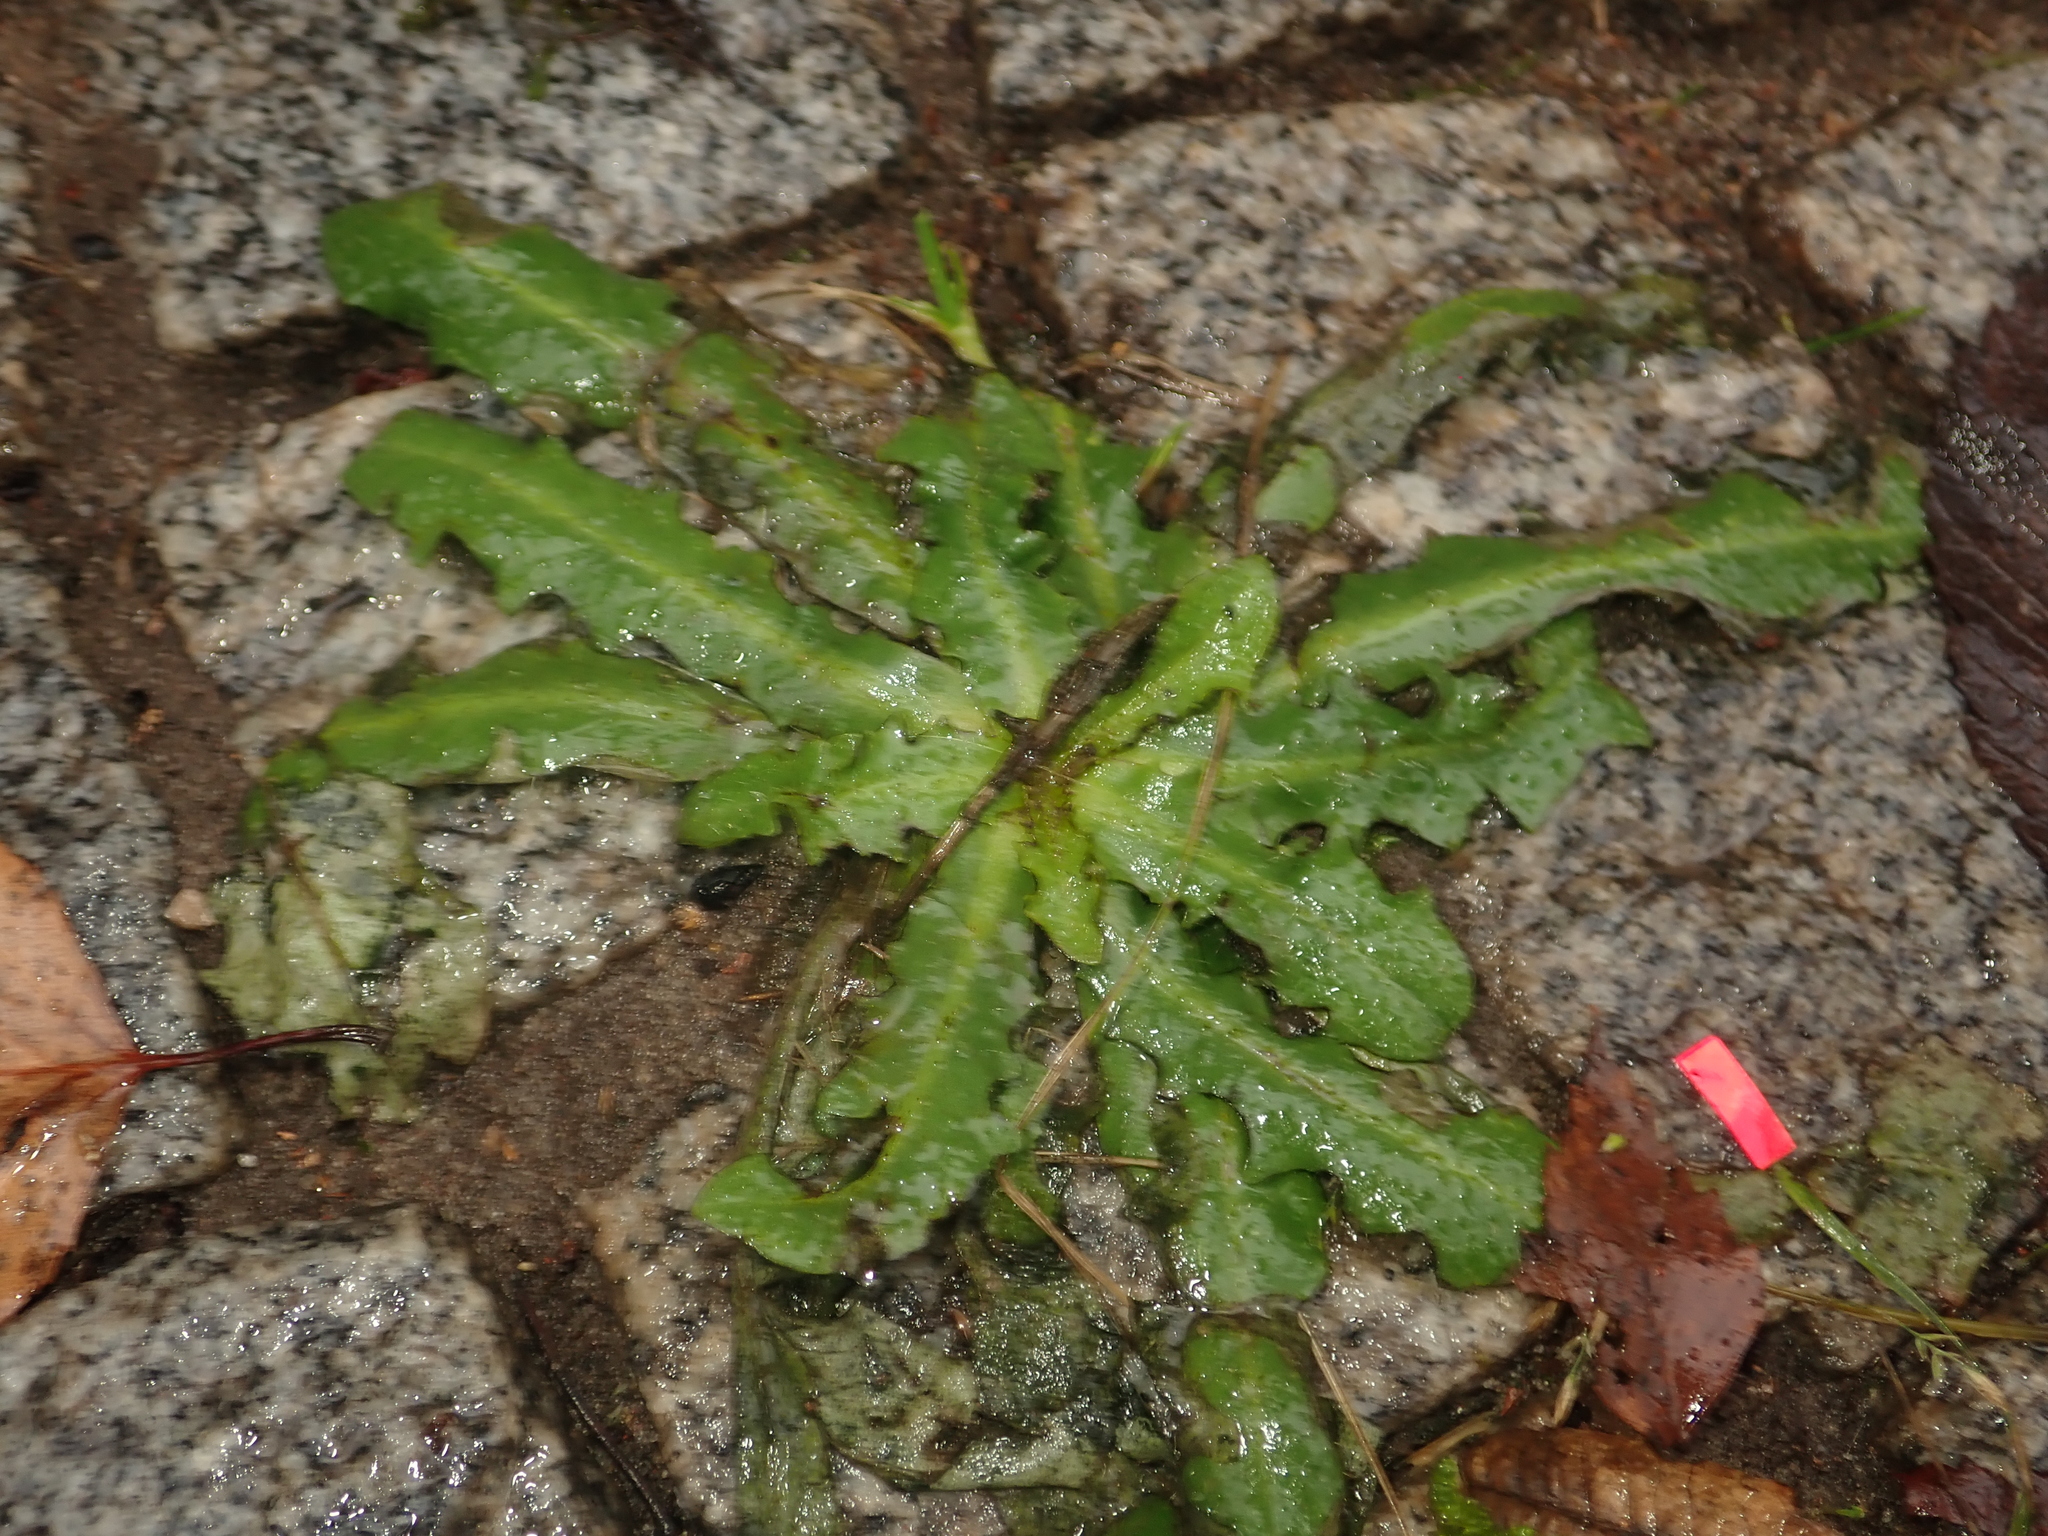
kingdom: Plantae
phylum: Tracheophyta
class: Magnoliopsida
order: Asterales
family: Asteraceae
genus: Hypochaeris
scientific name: Hypochaeris radicata
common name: Flatweed
